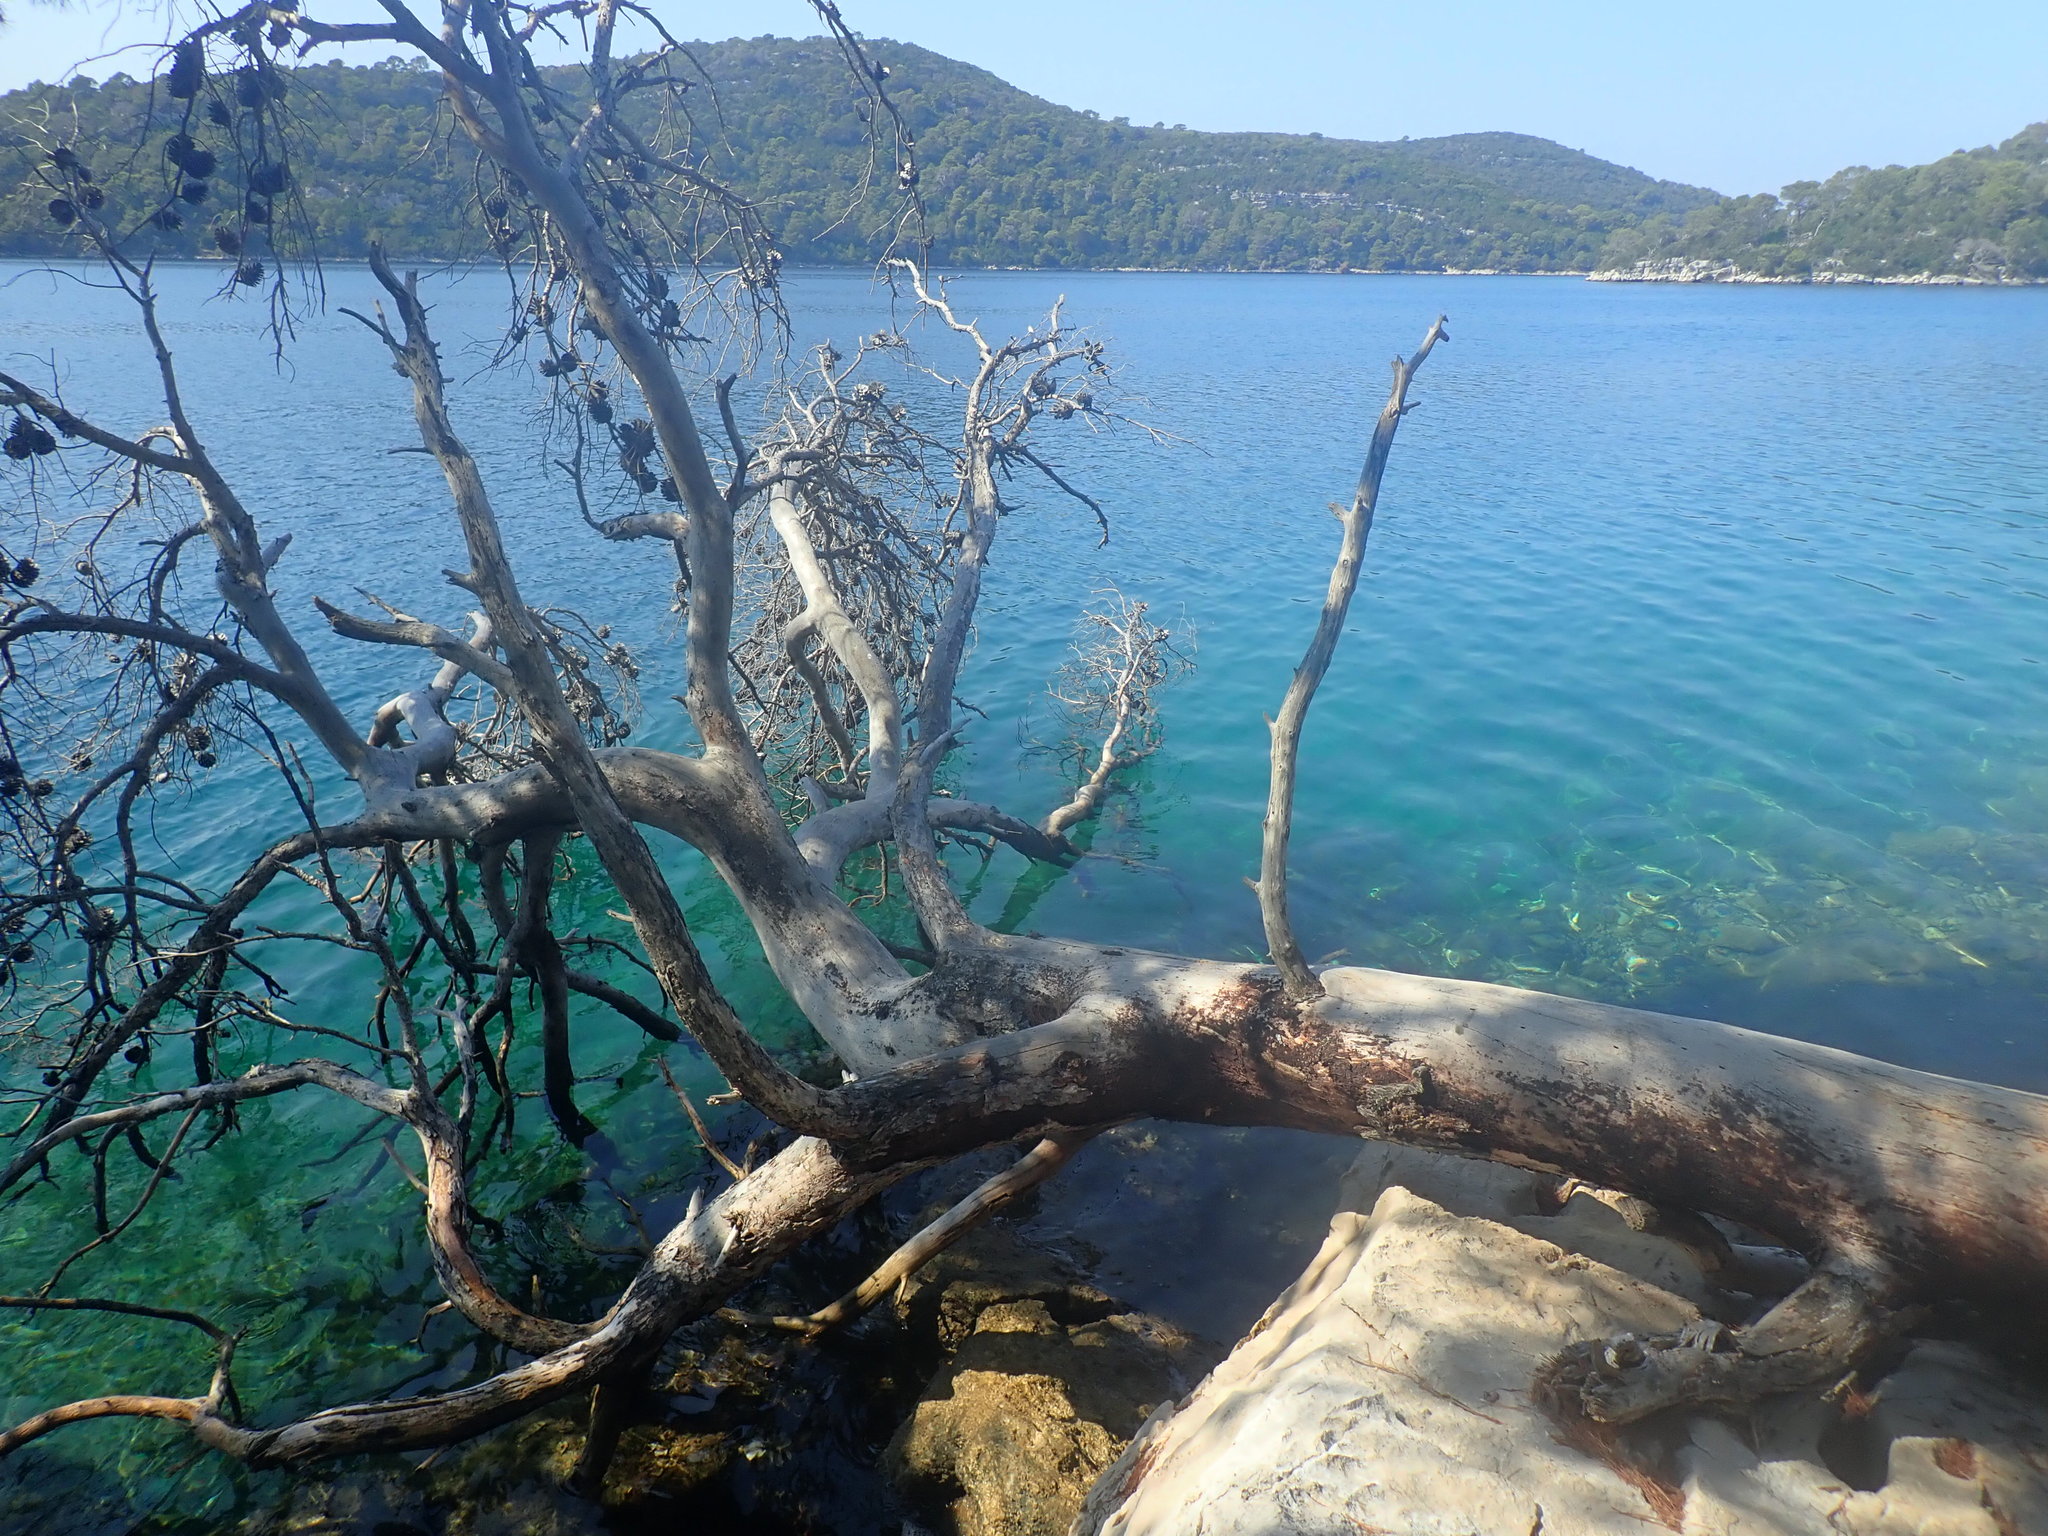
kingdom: Plantae
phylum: Tracheophyta
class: Pinopsida
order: Pinales
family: Pinaceae
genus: Pinus
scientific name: Pinus halepensis
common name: Aleppo pine
